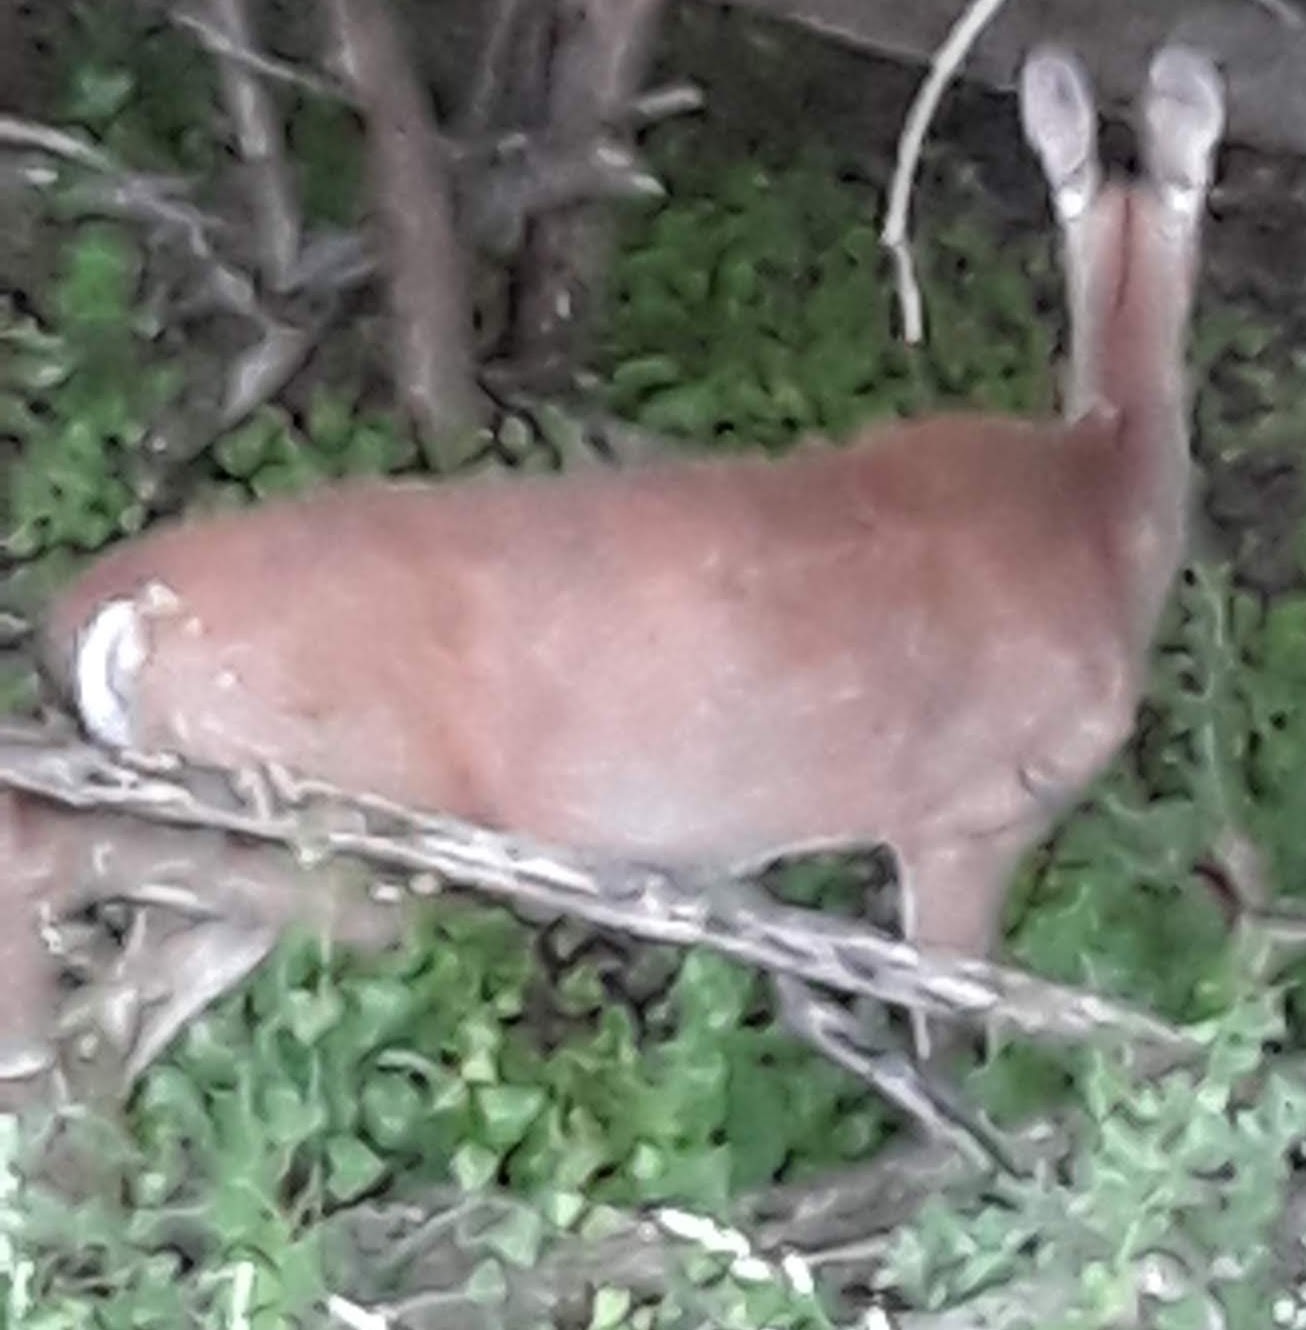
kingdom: Animalia
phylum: Chordata
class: Mammalia
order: Artiodactyla
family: Cervidae
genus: Odocoileus
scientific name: Odocoileus virginianus
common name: White-tailed deer
